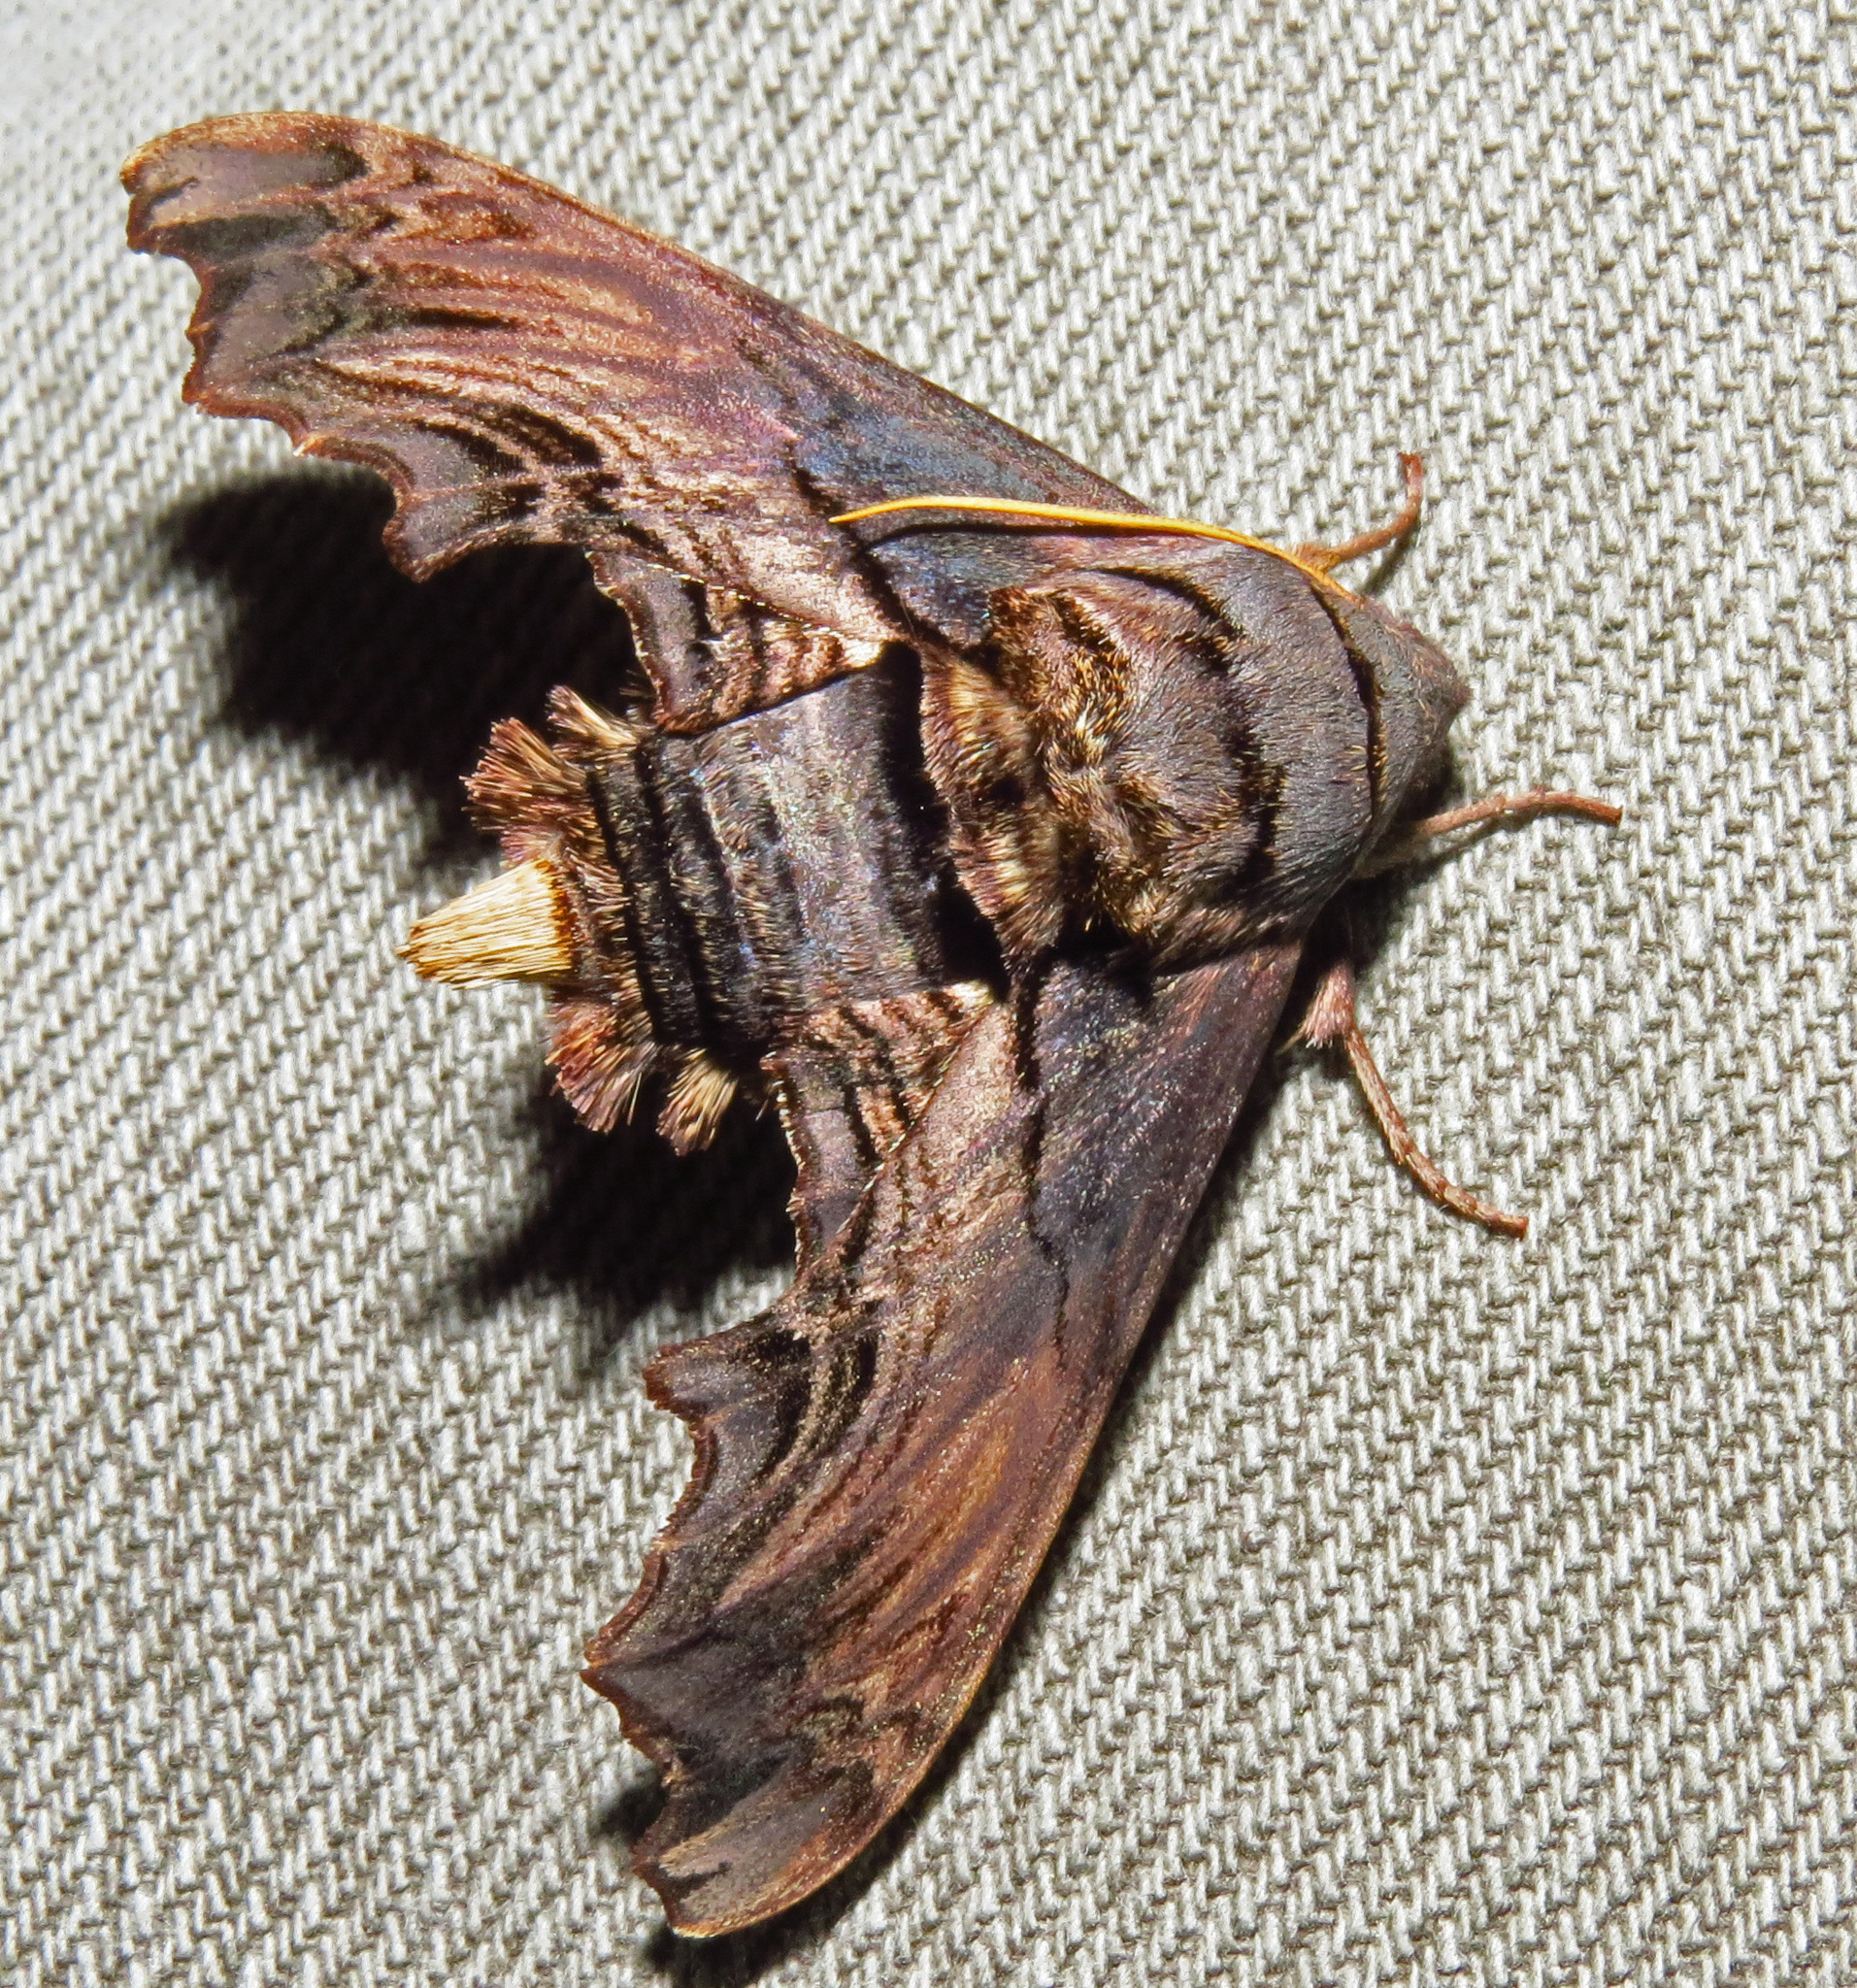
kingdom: Animalia
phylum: Arthropoda
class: Insecta
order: Lepidoptera
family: Sphingidae
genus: Sphecodina
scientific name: Sphecodina abbottii
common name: Abbott's sphinx
